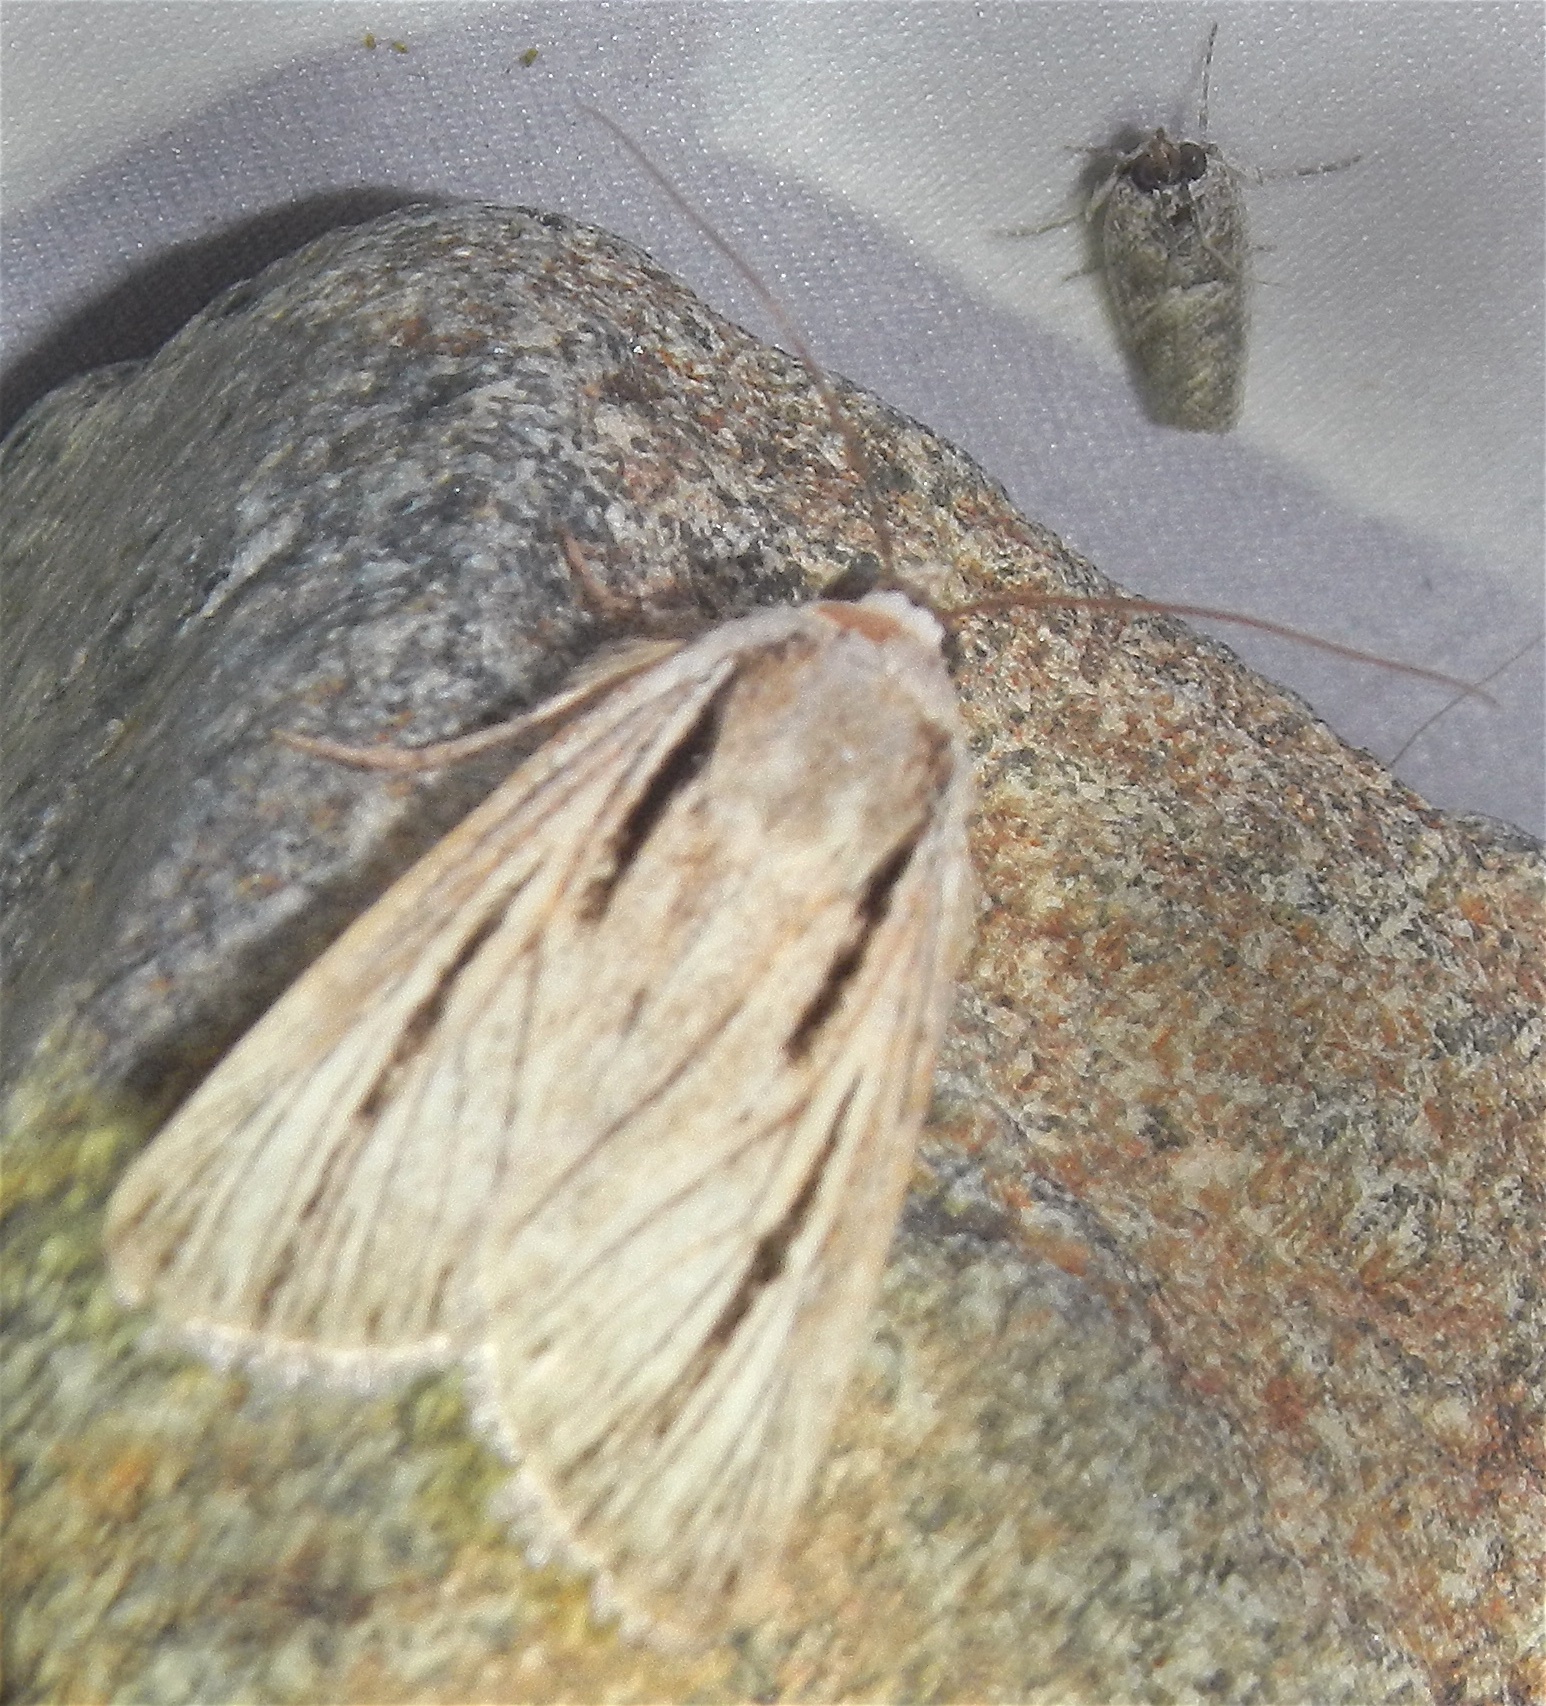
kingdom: Animalia
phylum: Arthropoda
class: Insecta
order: Lepidoptera
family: Noctuidae
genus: Sympistis
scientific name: Sympistis nigrocaput
